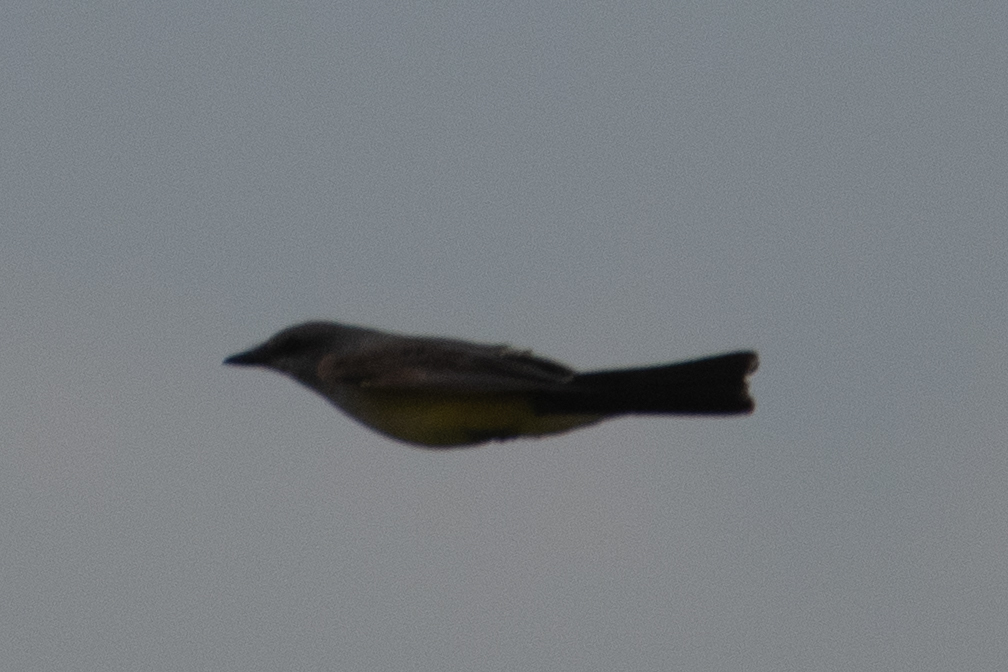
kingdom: Animalia
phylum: Chordata
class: Aves
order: Passeriformes
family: Tyrannidae
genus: Tyrannus
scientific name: Tyrannus verticalis
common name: Western kingbird
